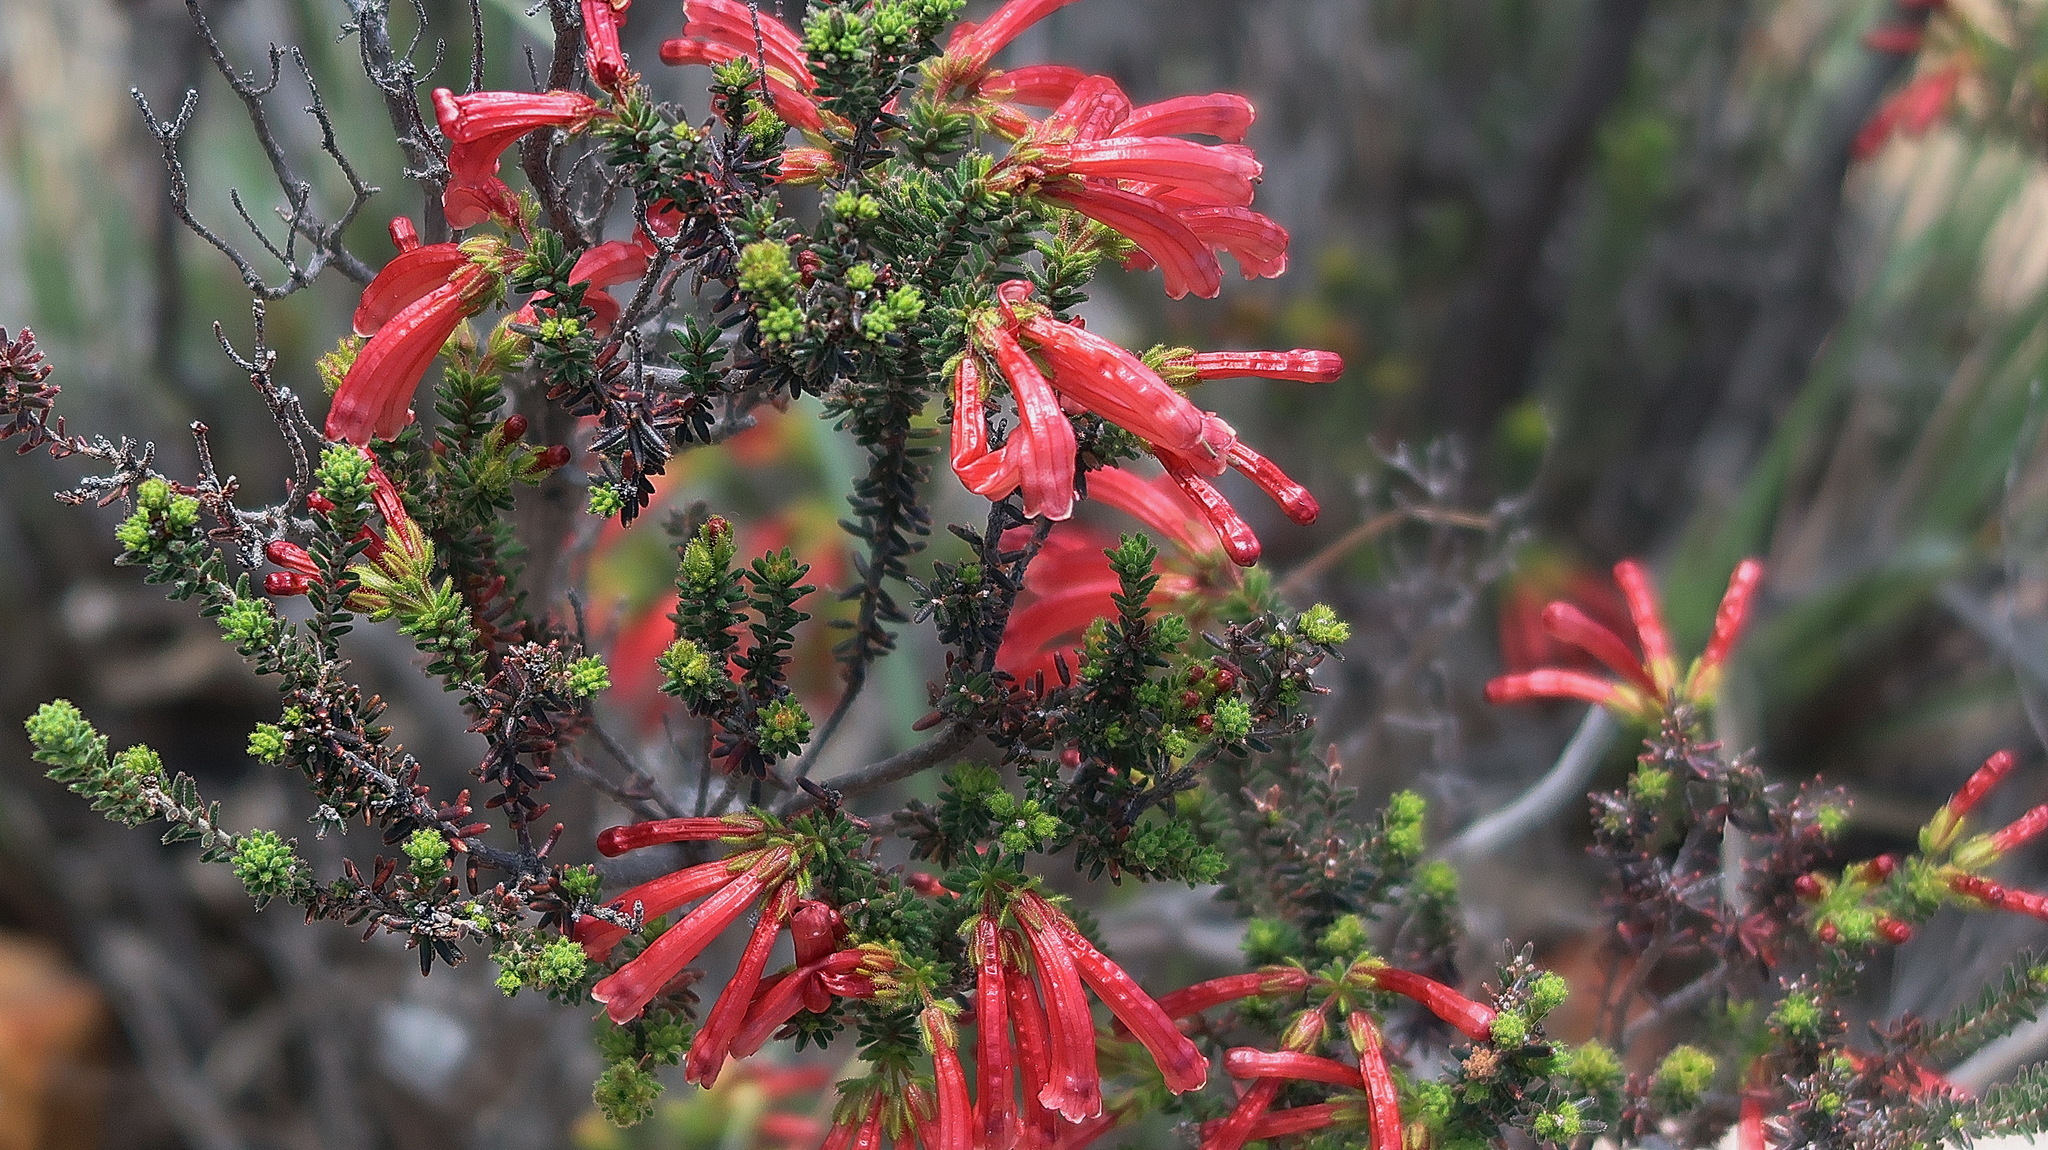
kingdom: Plantae
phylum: Tracheophyta
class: Magnoliopsida
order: Ericales
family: Ericaceae
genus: Erica
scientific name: Erica glandulosa
